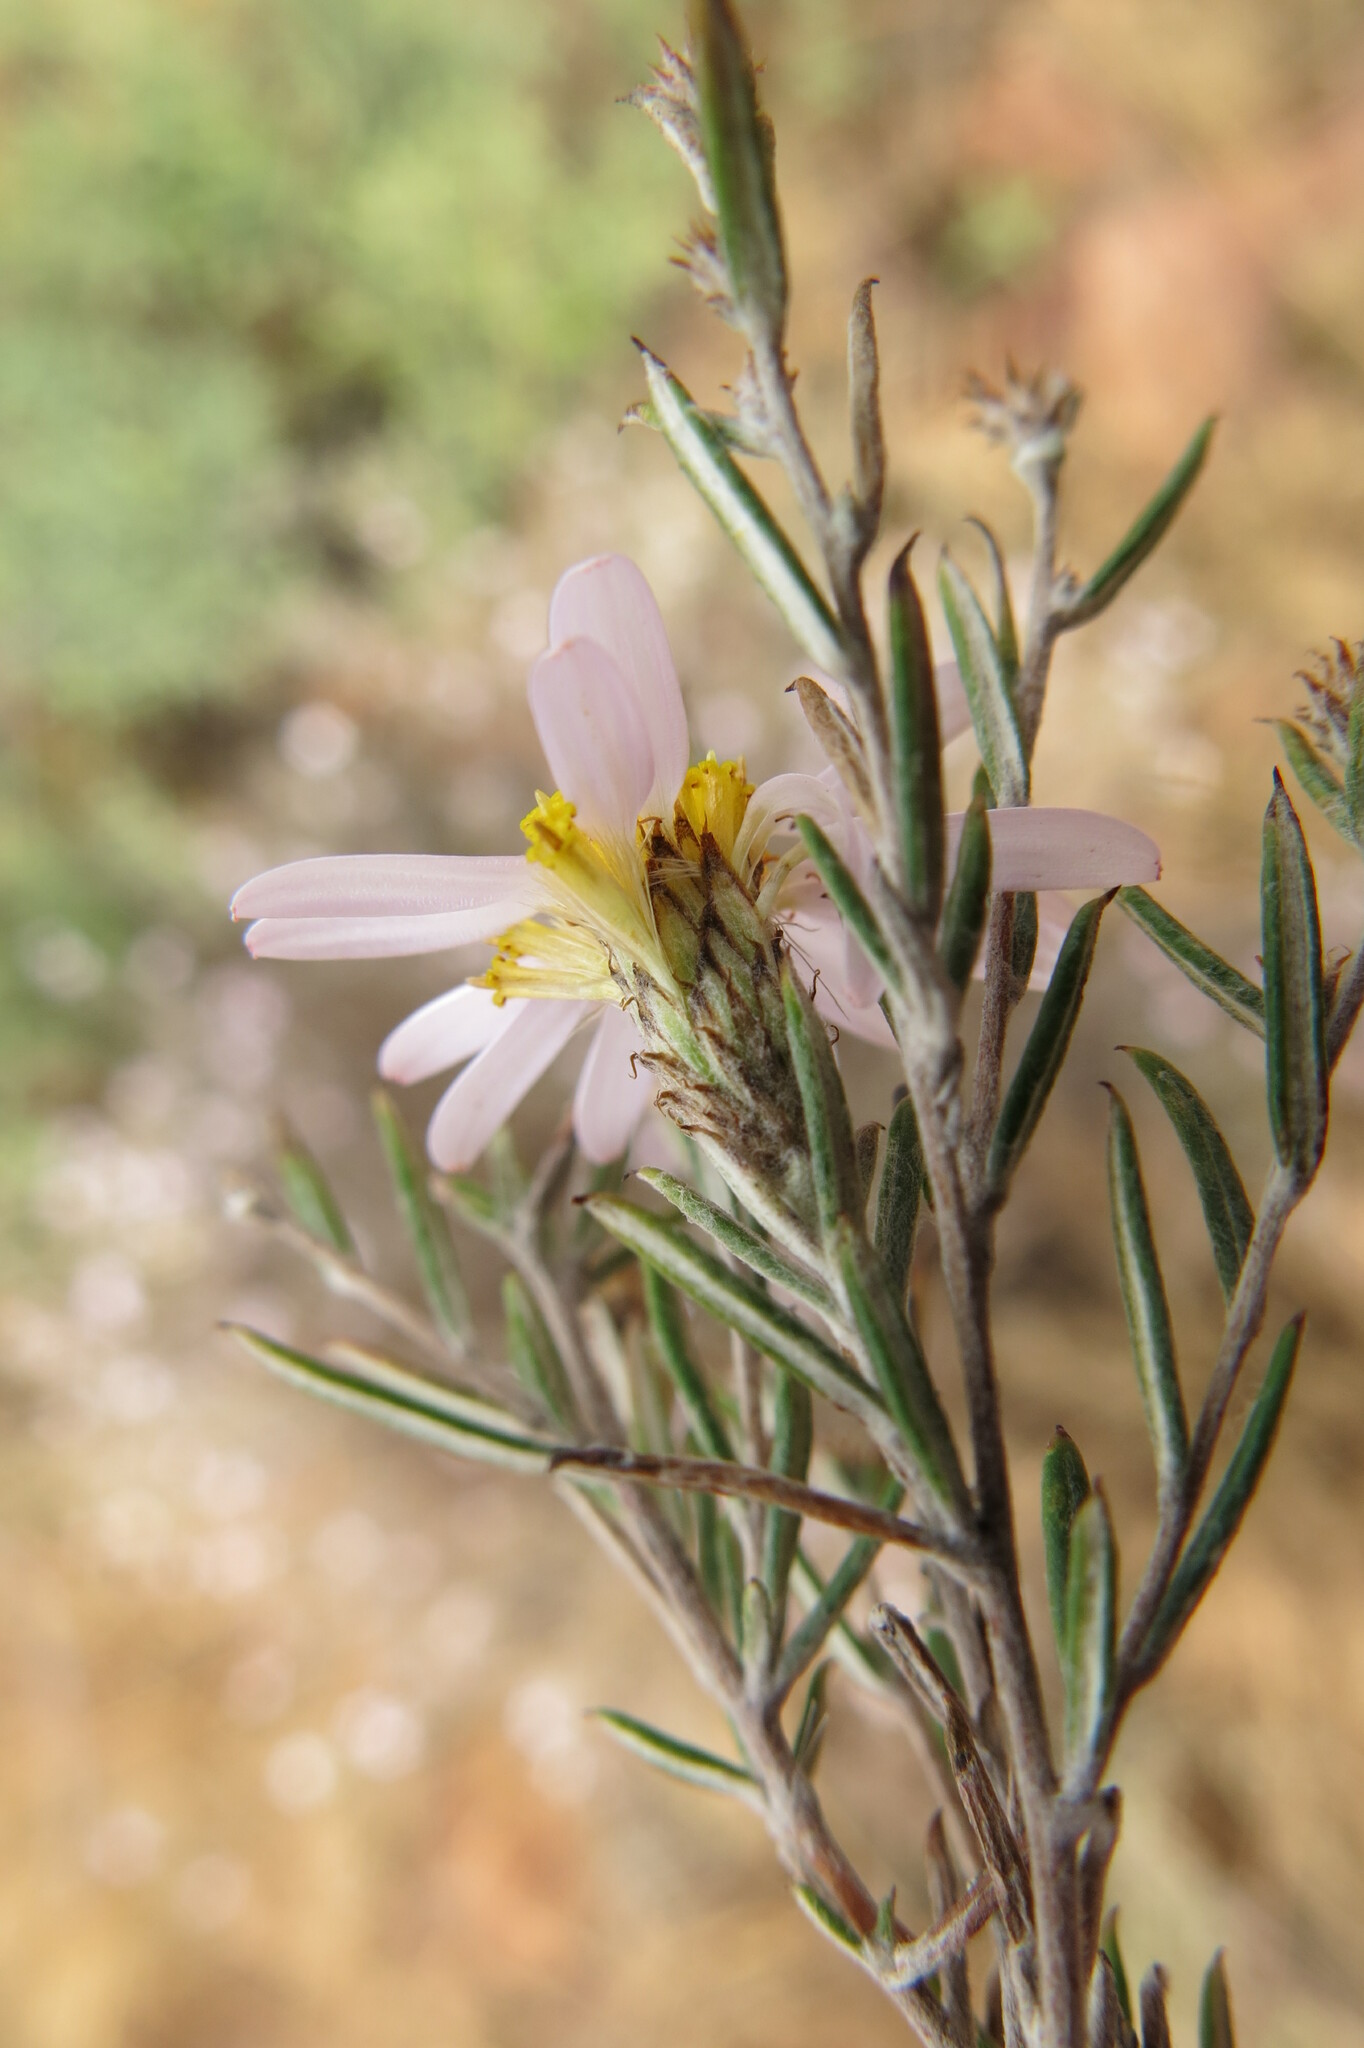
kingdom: Plantae
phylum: Tracheophyta
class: Magnoliopsida
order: Asterales
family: Asteraceae
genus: Athrixia
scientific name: Athrixia elata
